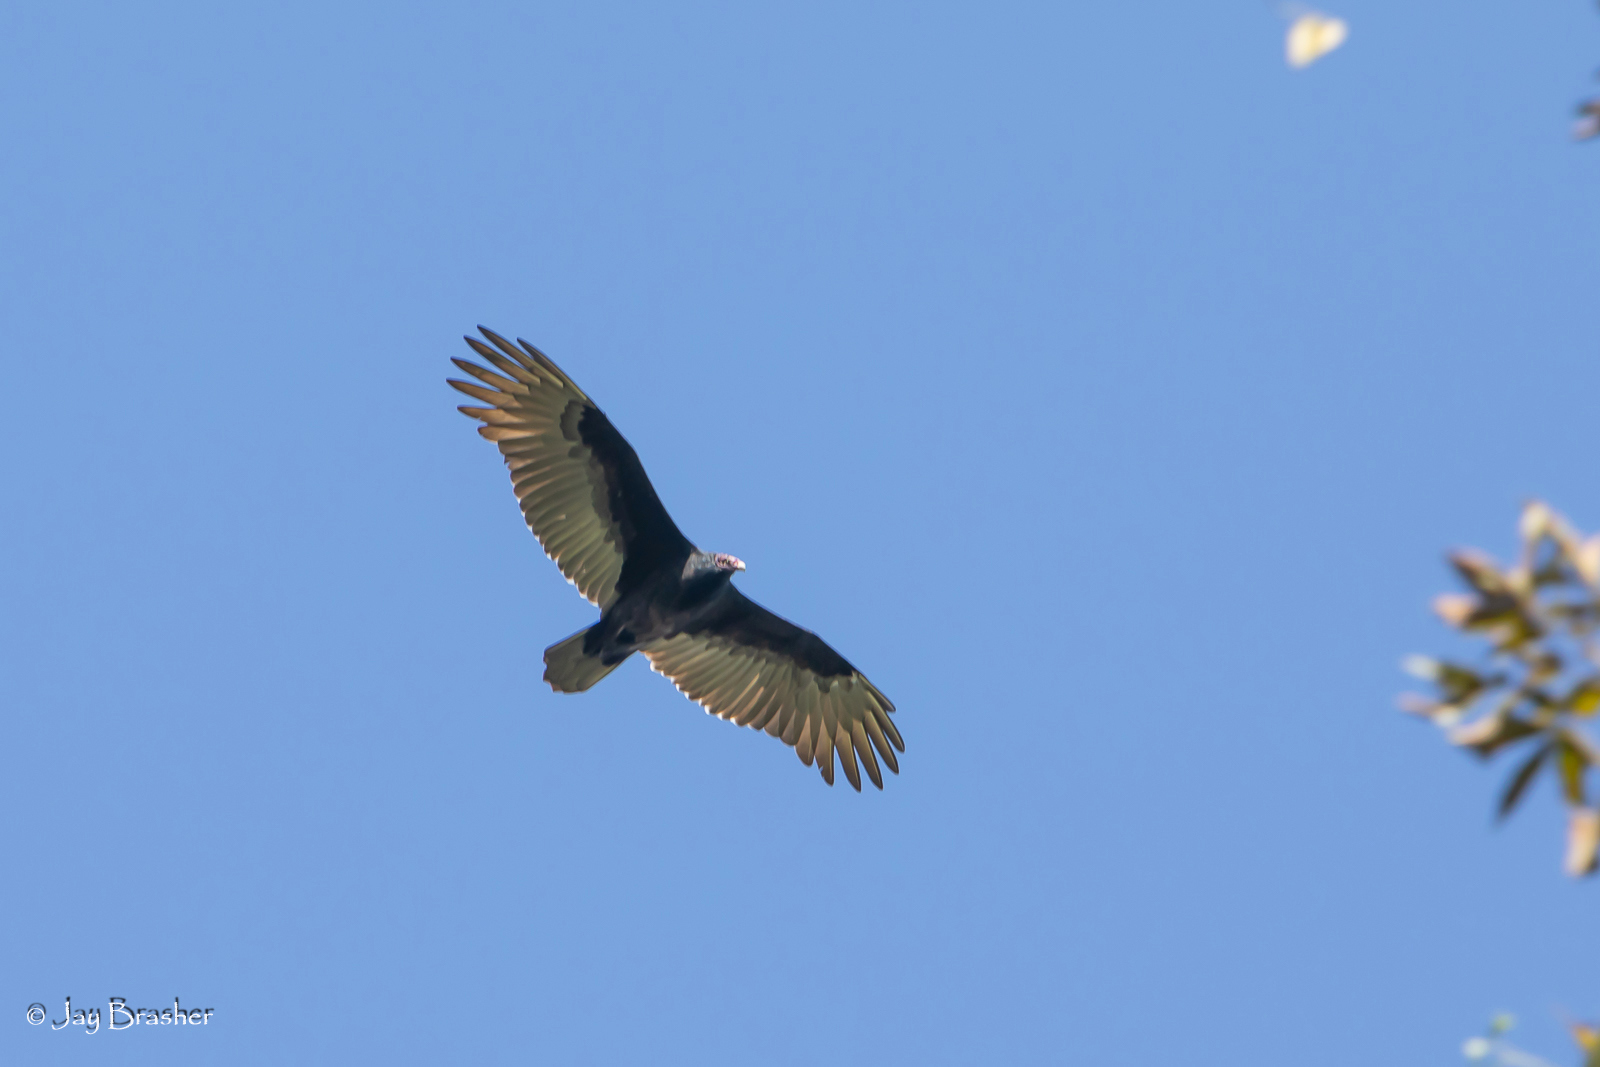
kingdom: Animalia
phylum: Chordata
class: Aves
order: Accipitriformes
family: Cathartidae
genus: Cathartes
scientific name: Cathartes aura
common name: Turkey vulture
